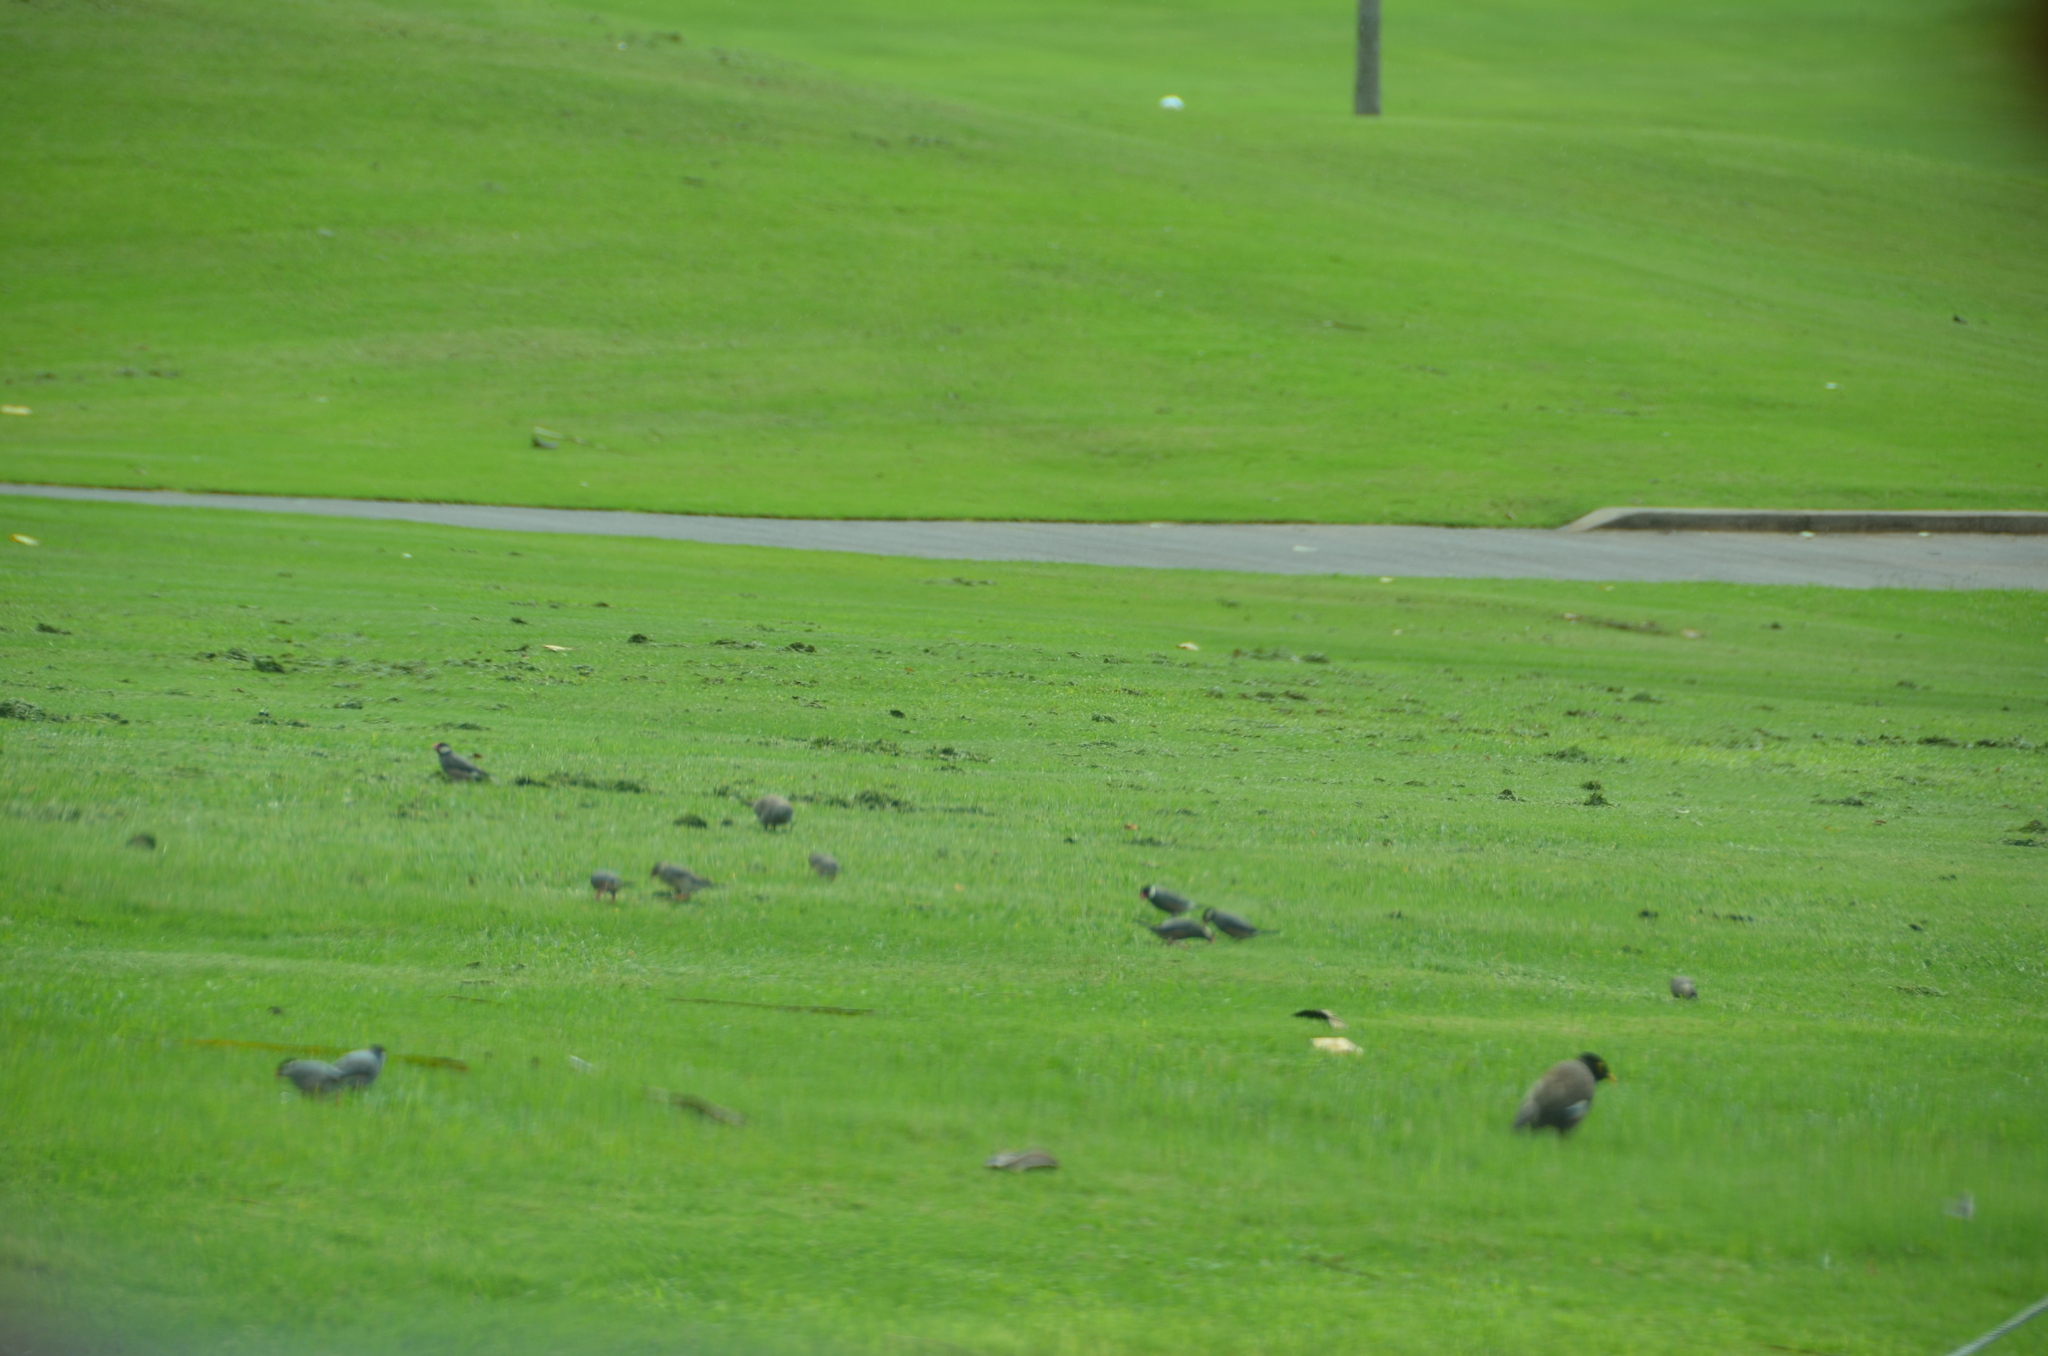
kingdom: Animalia
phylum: Chordata
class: Aves
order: Passeriformes
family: Estrildidae
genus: Lonchura
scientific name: Lonchura oryzivora
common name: Java sparrow
